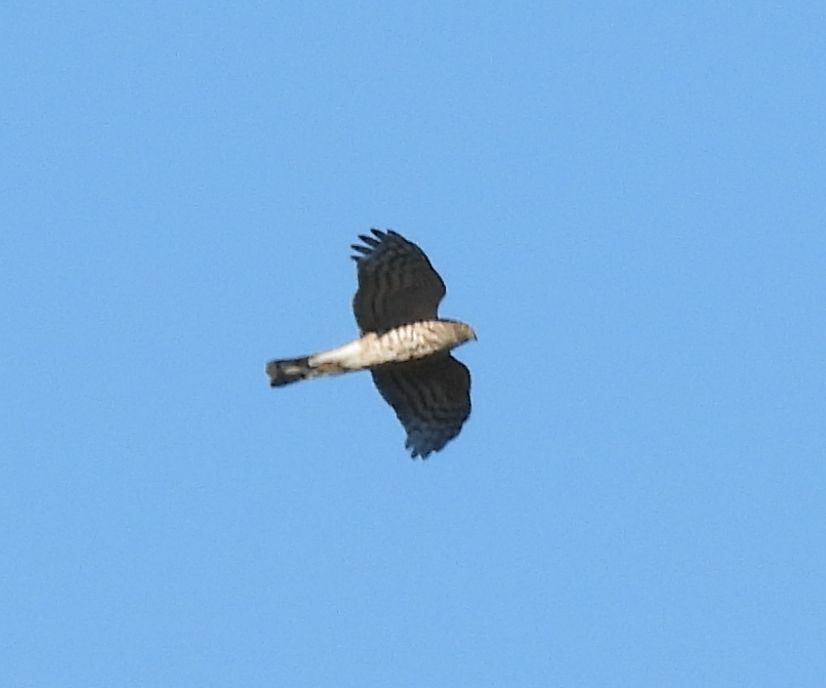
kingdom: Animalia
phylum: Chordata
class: Aves
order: Accipitriformes
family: Accipitridae
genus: Accipiter
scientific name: Accipiter striatus
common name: Sharp-shinned hawk
